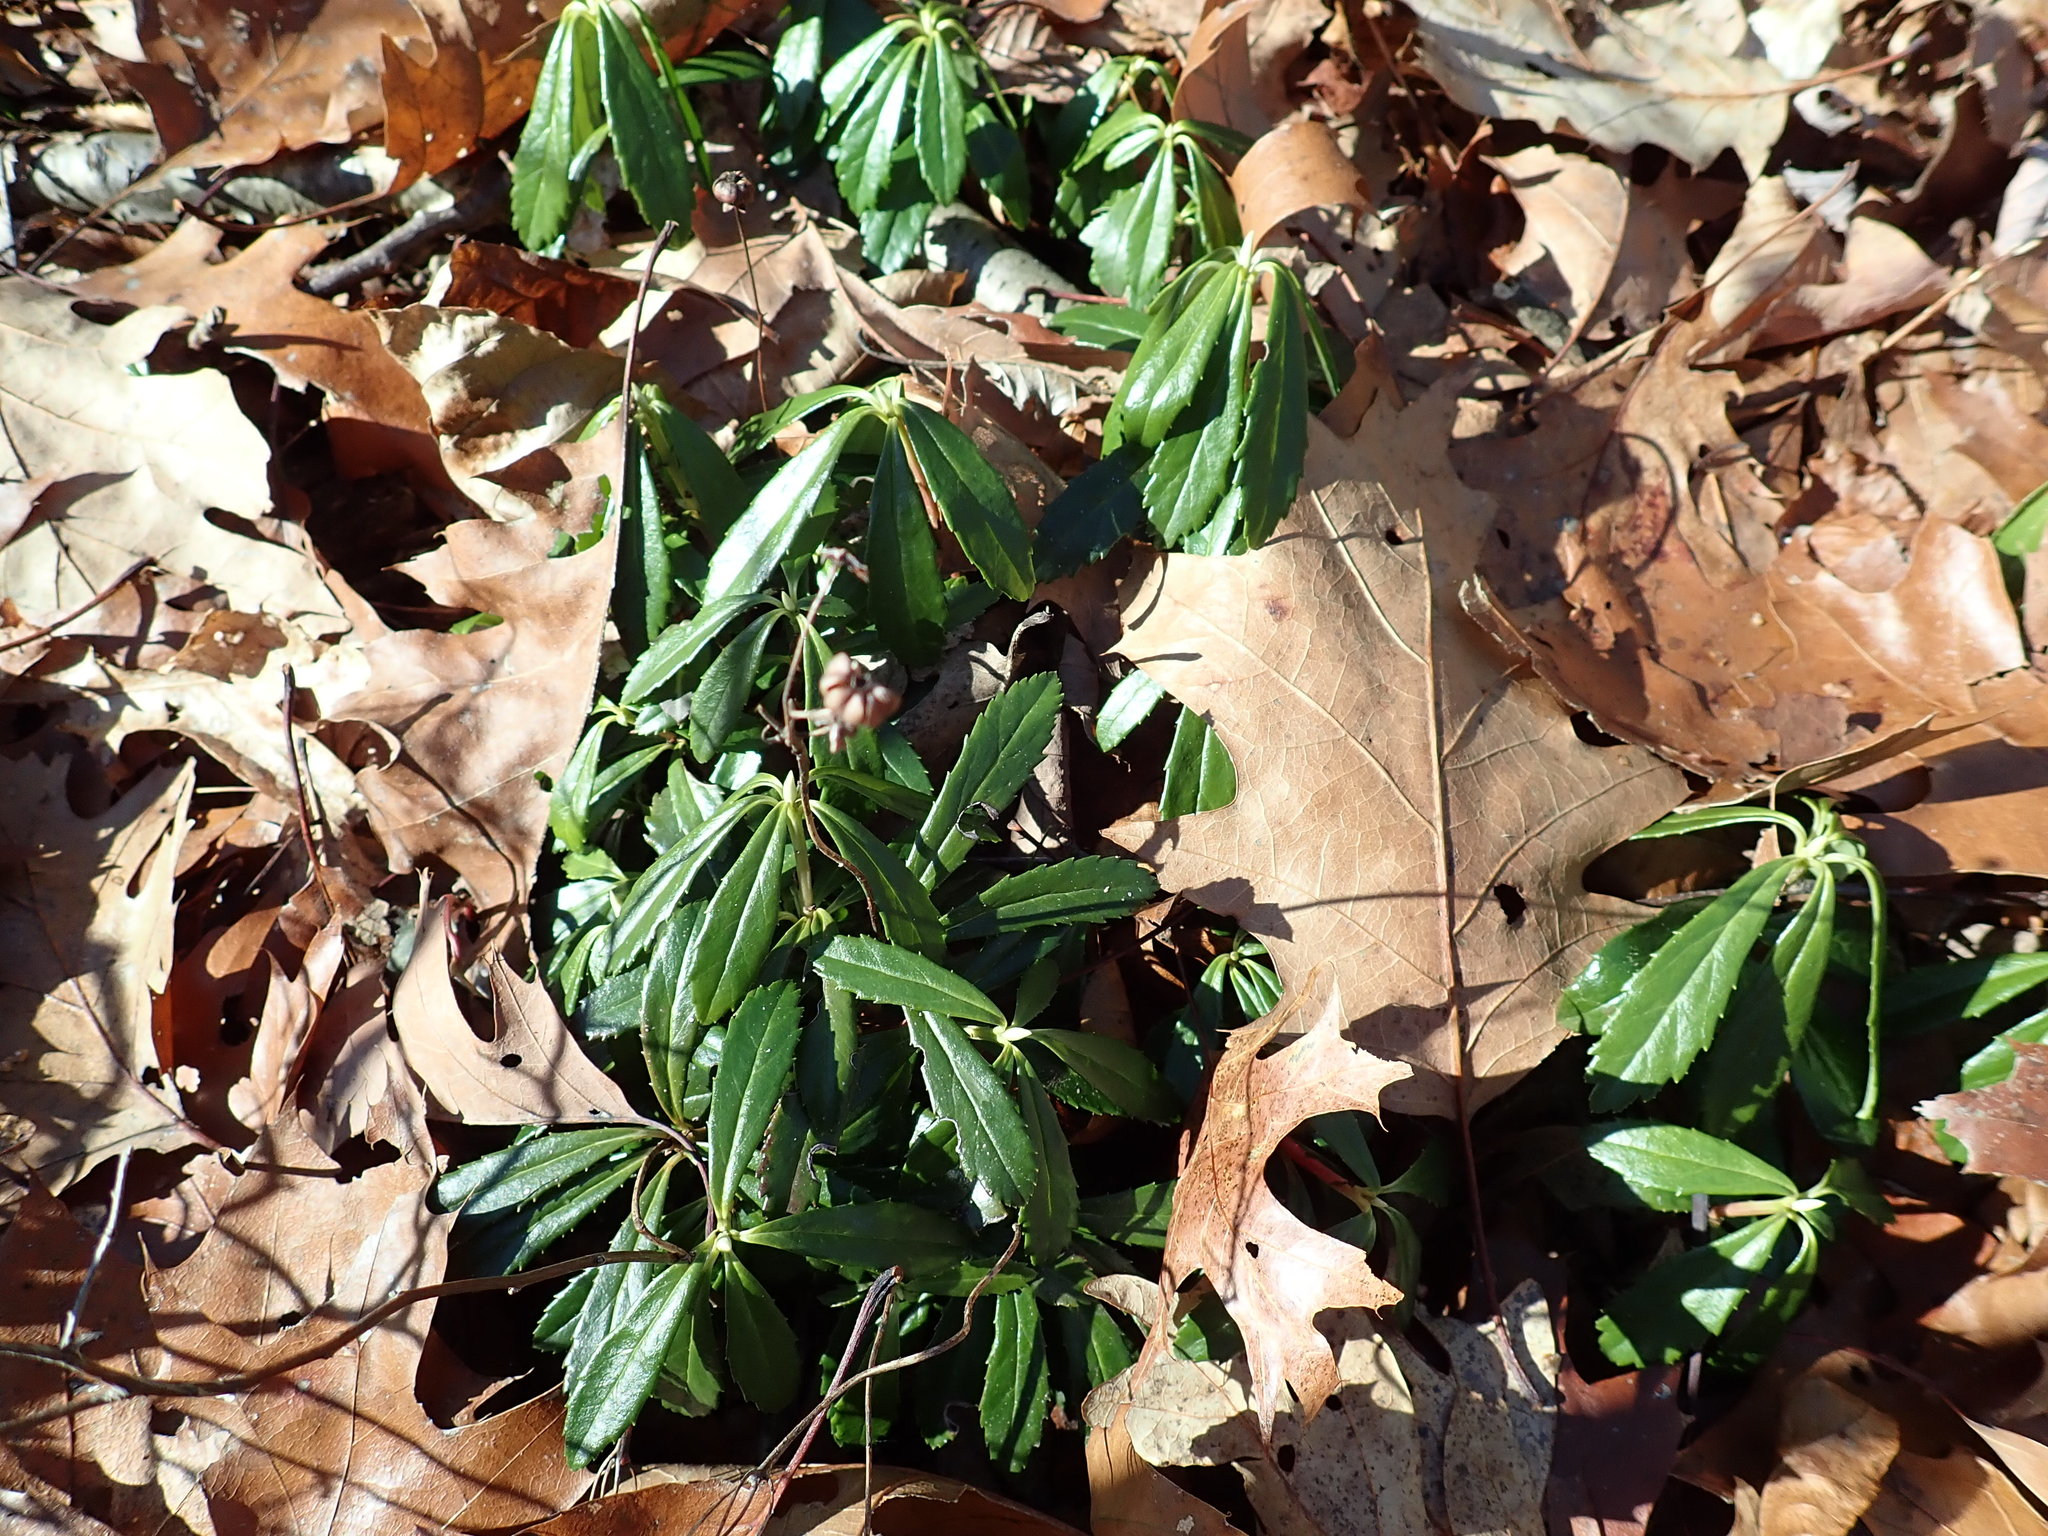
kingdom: Plantae
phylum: Tracheophyta
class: Magnoliopsida
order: Ericales
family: Ericaceae
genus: Chimaphila
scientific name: Chimaphila umbellata
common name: Pipsissewa
